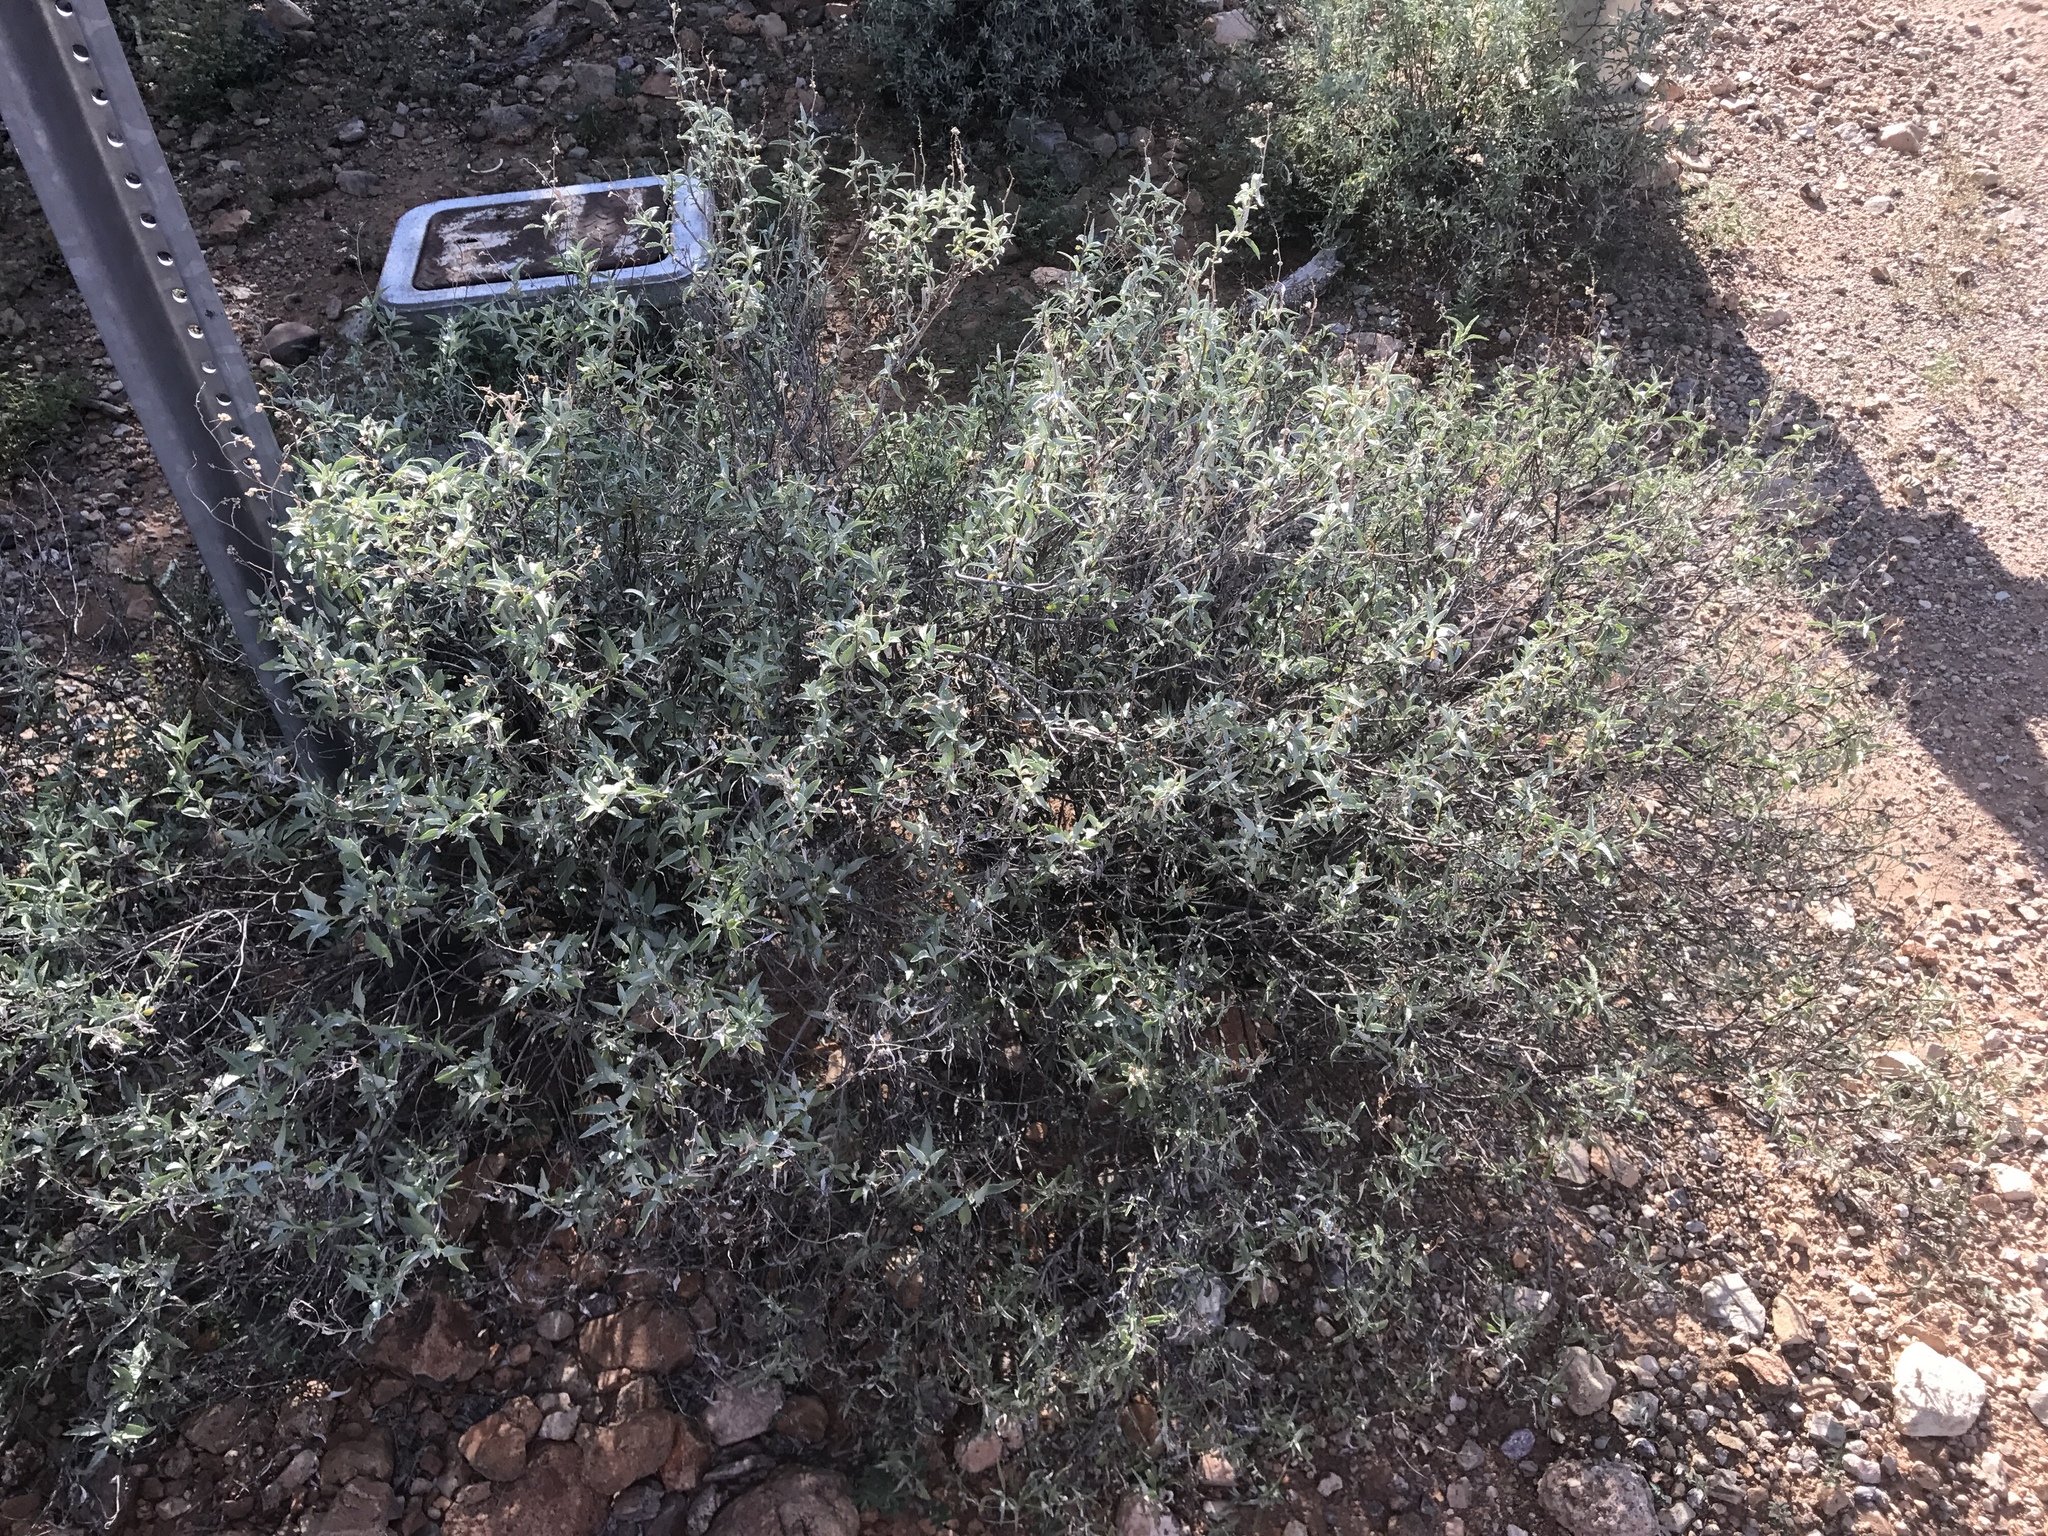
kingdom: Plantae
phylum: Tracheophyta
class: Magnoliopsida
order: Asterales
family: Asteraceae
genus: Ambrosia
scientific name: Ambrosia deltoidea
